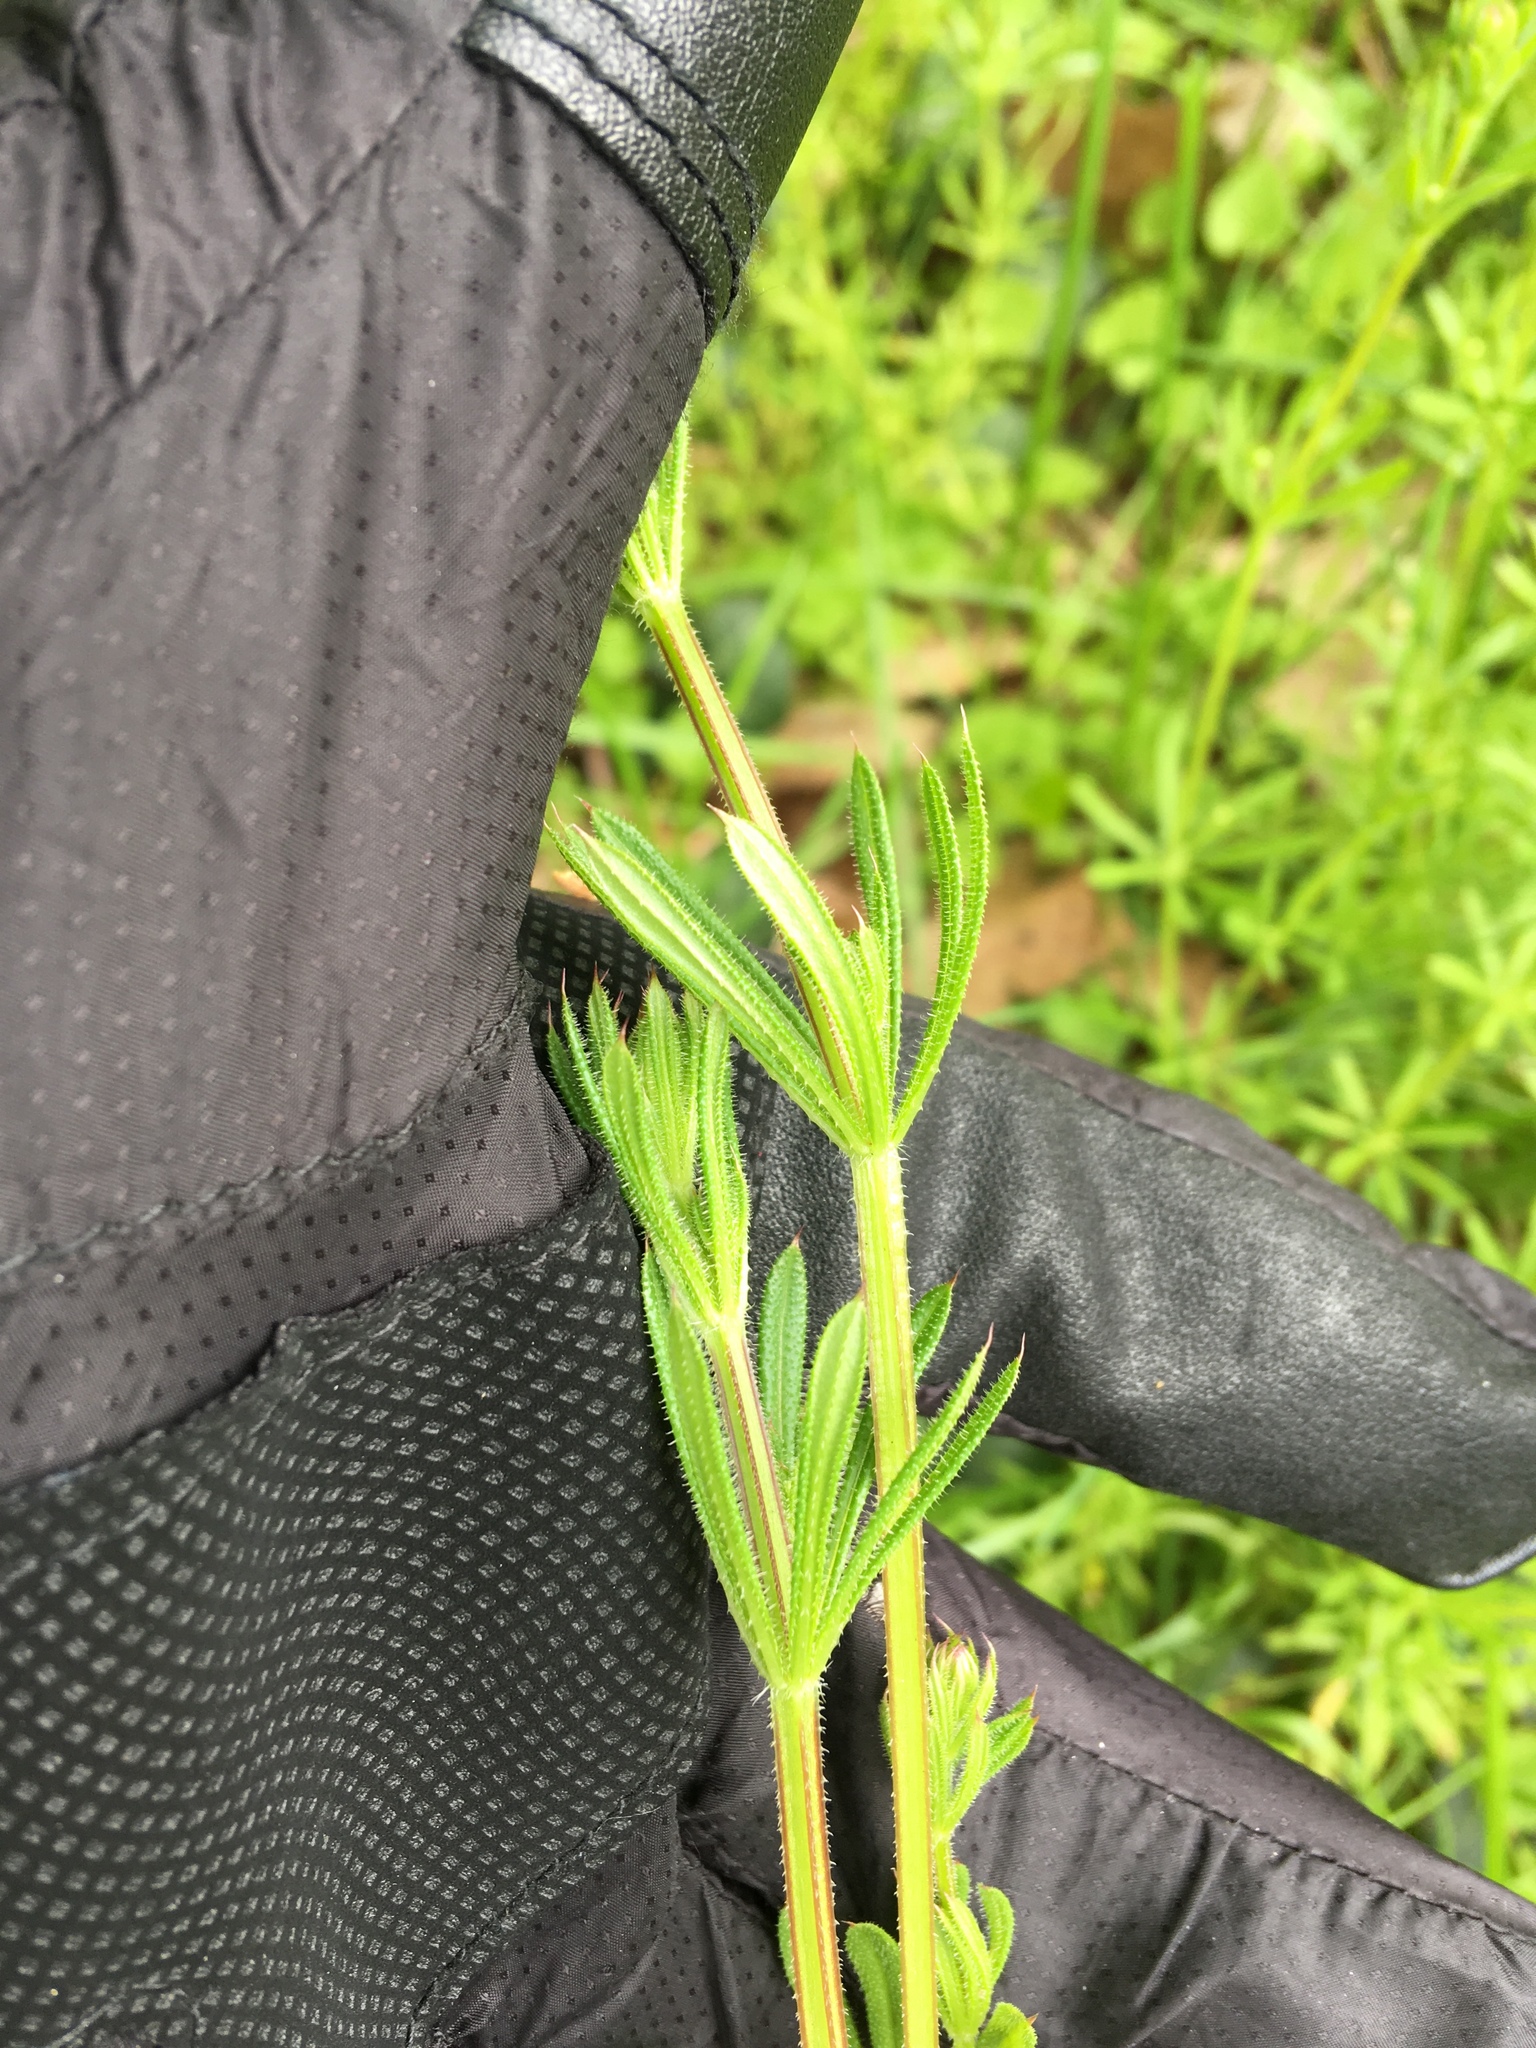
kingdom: Plantae
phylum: Tracheophyta
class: Magnoliopsida
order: Gentianales
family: Rubiaceae
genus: Galium
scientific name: Galium aparine
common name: Cleavers
